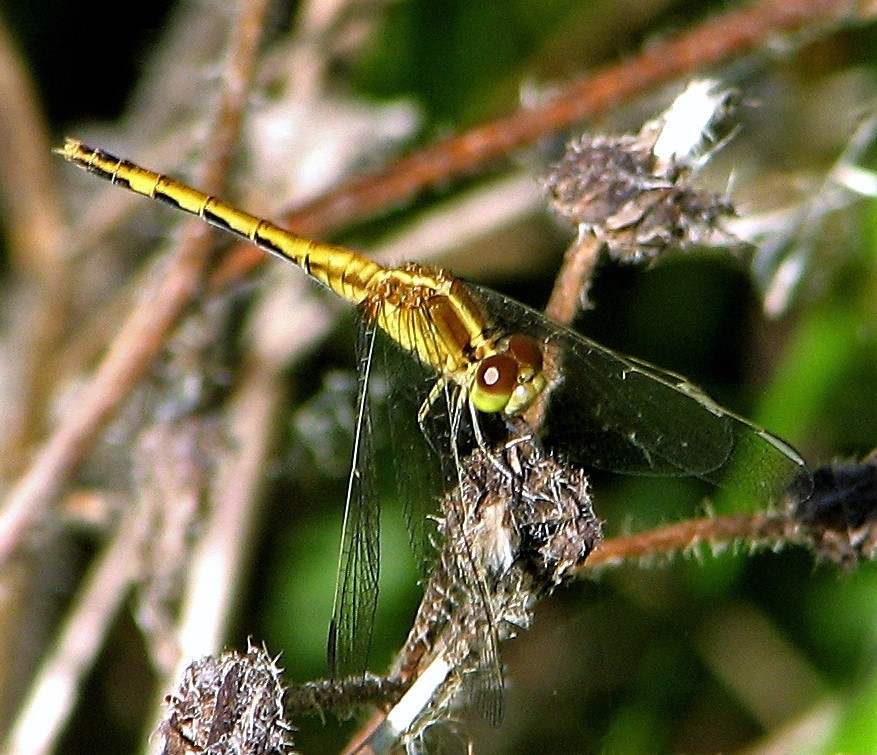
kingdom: Animalia
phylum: Arthropoda
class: Insecta
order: Odonata
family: Libellulidae
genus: Erythrodiplax
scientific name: Erythrodiplax nigricans
